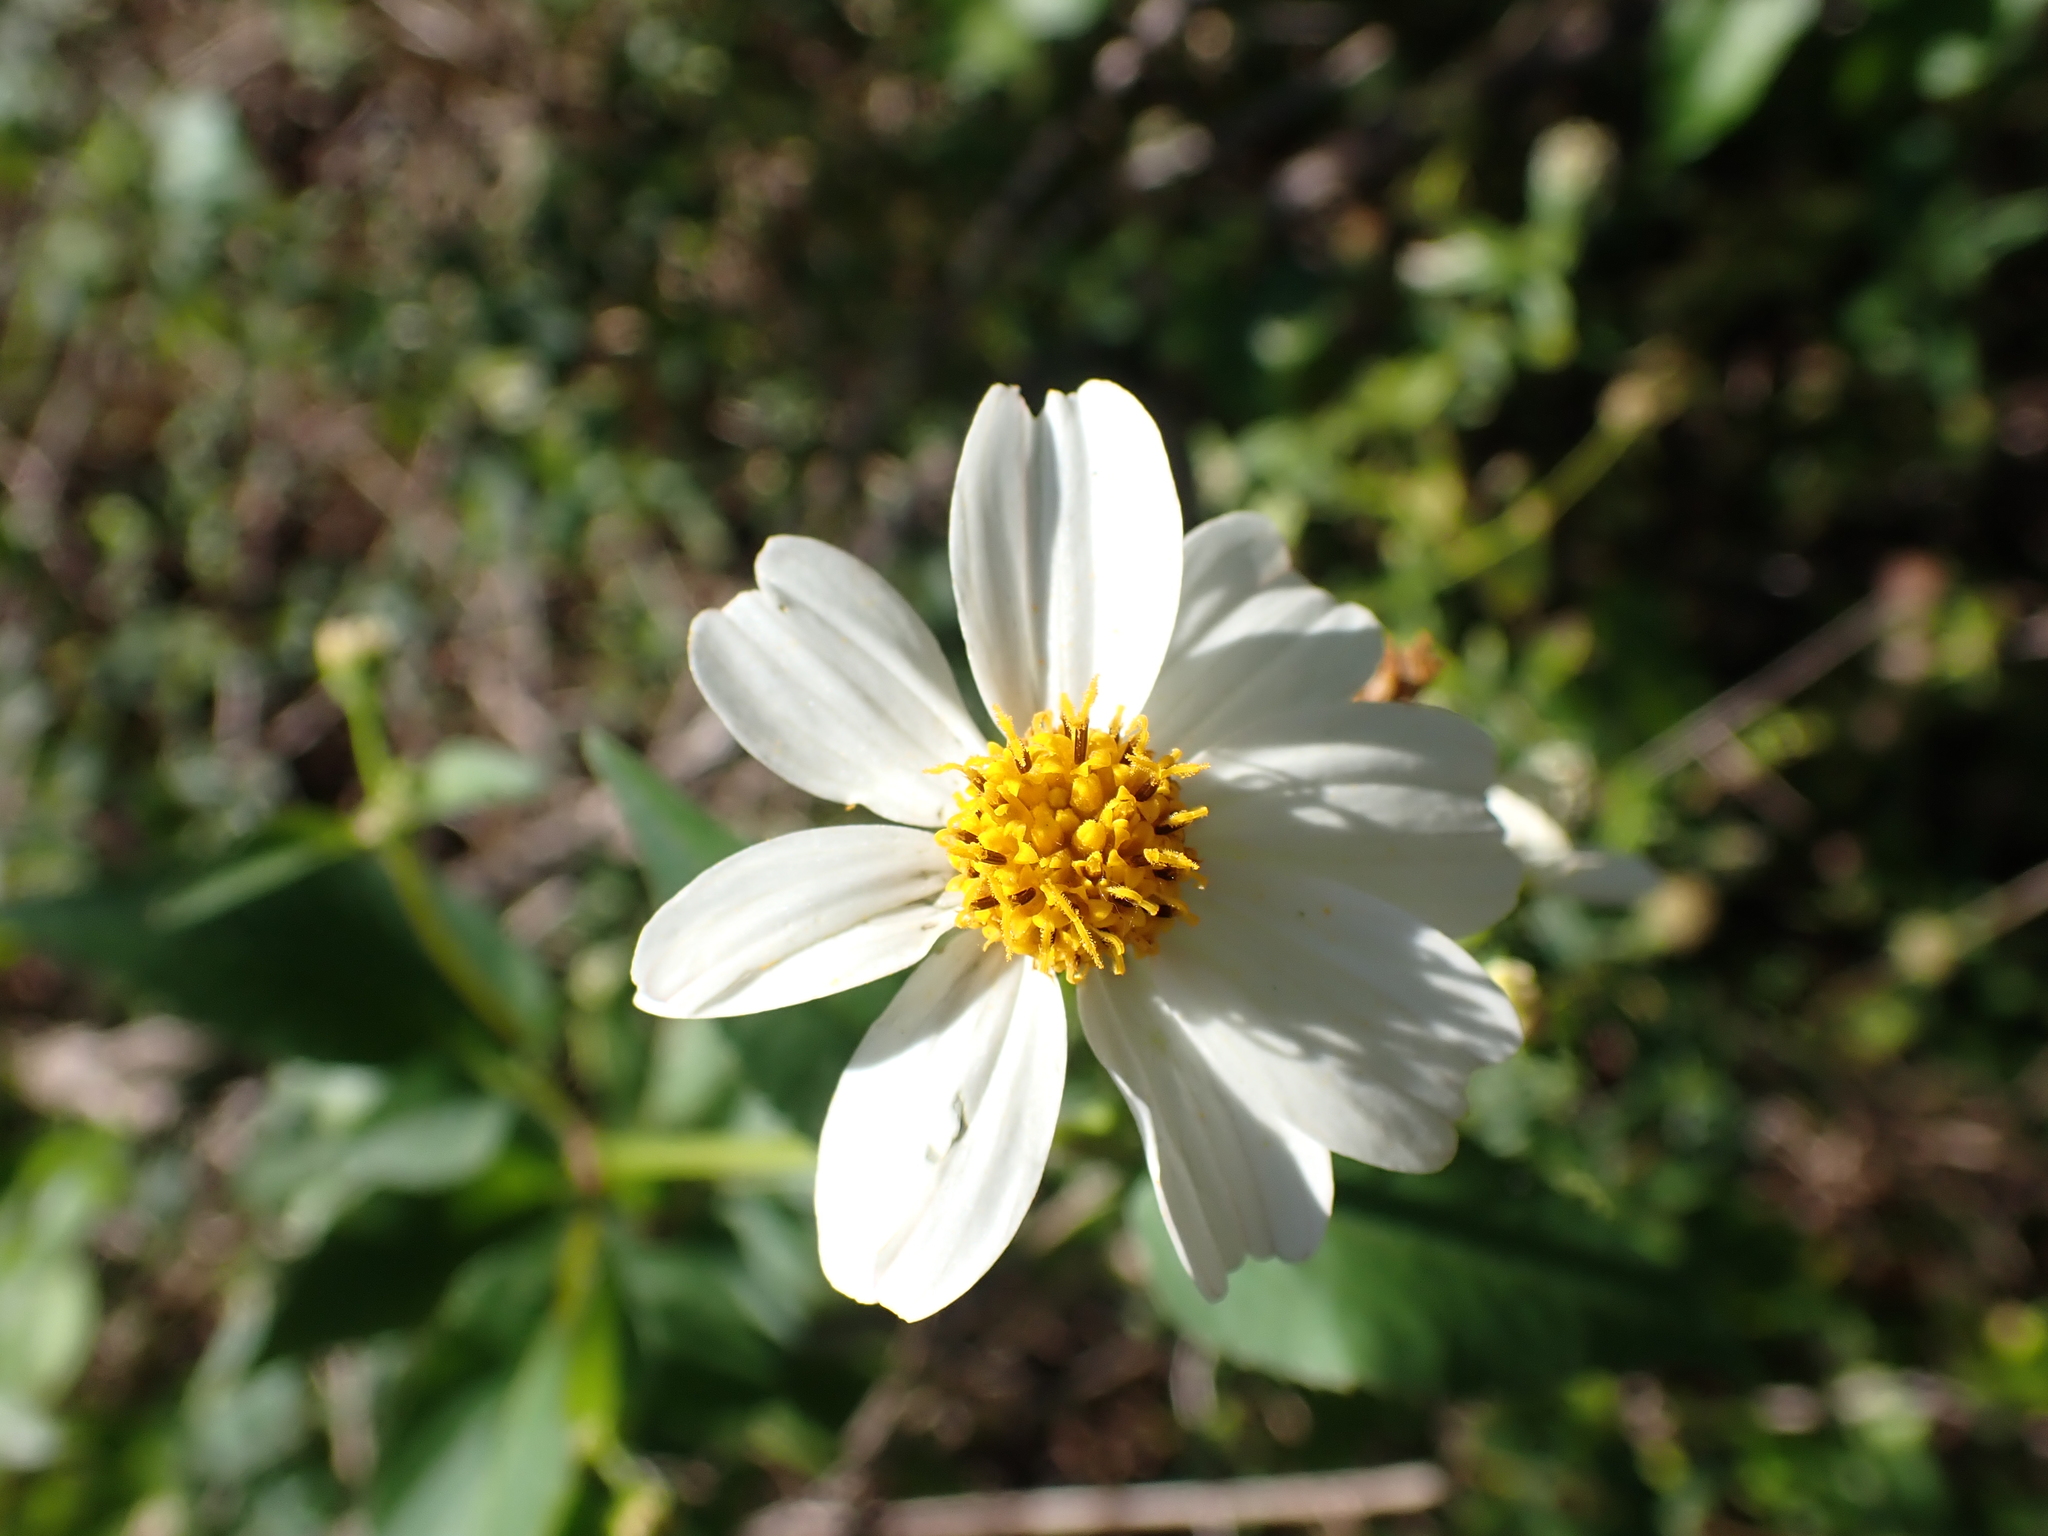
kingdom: Plantae
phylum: Tracheophyta
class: Magnoliopsida
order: Asterales
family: Asteraceae
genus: Bidens
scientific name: Bidens alba
